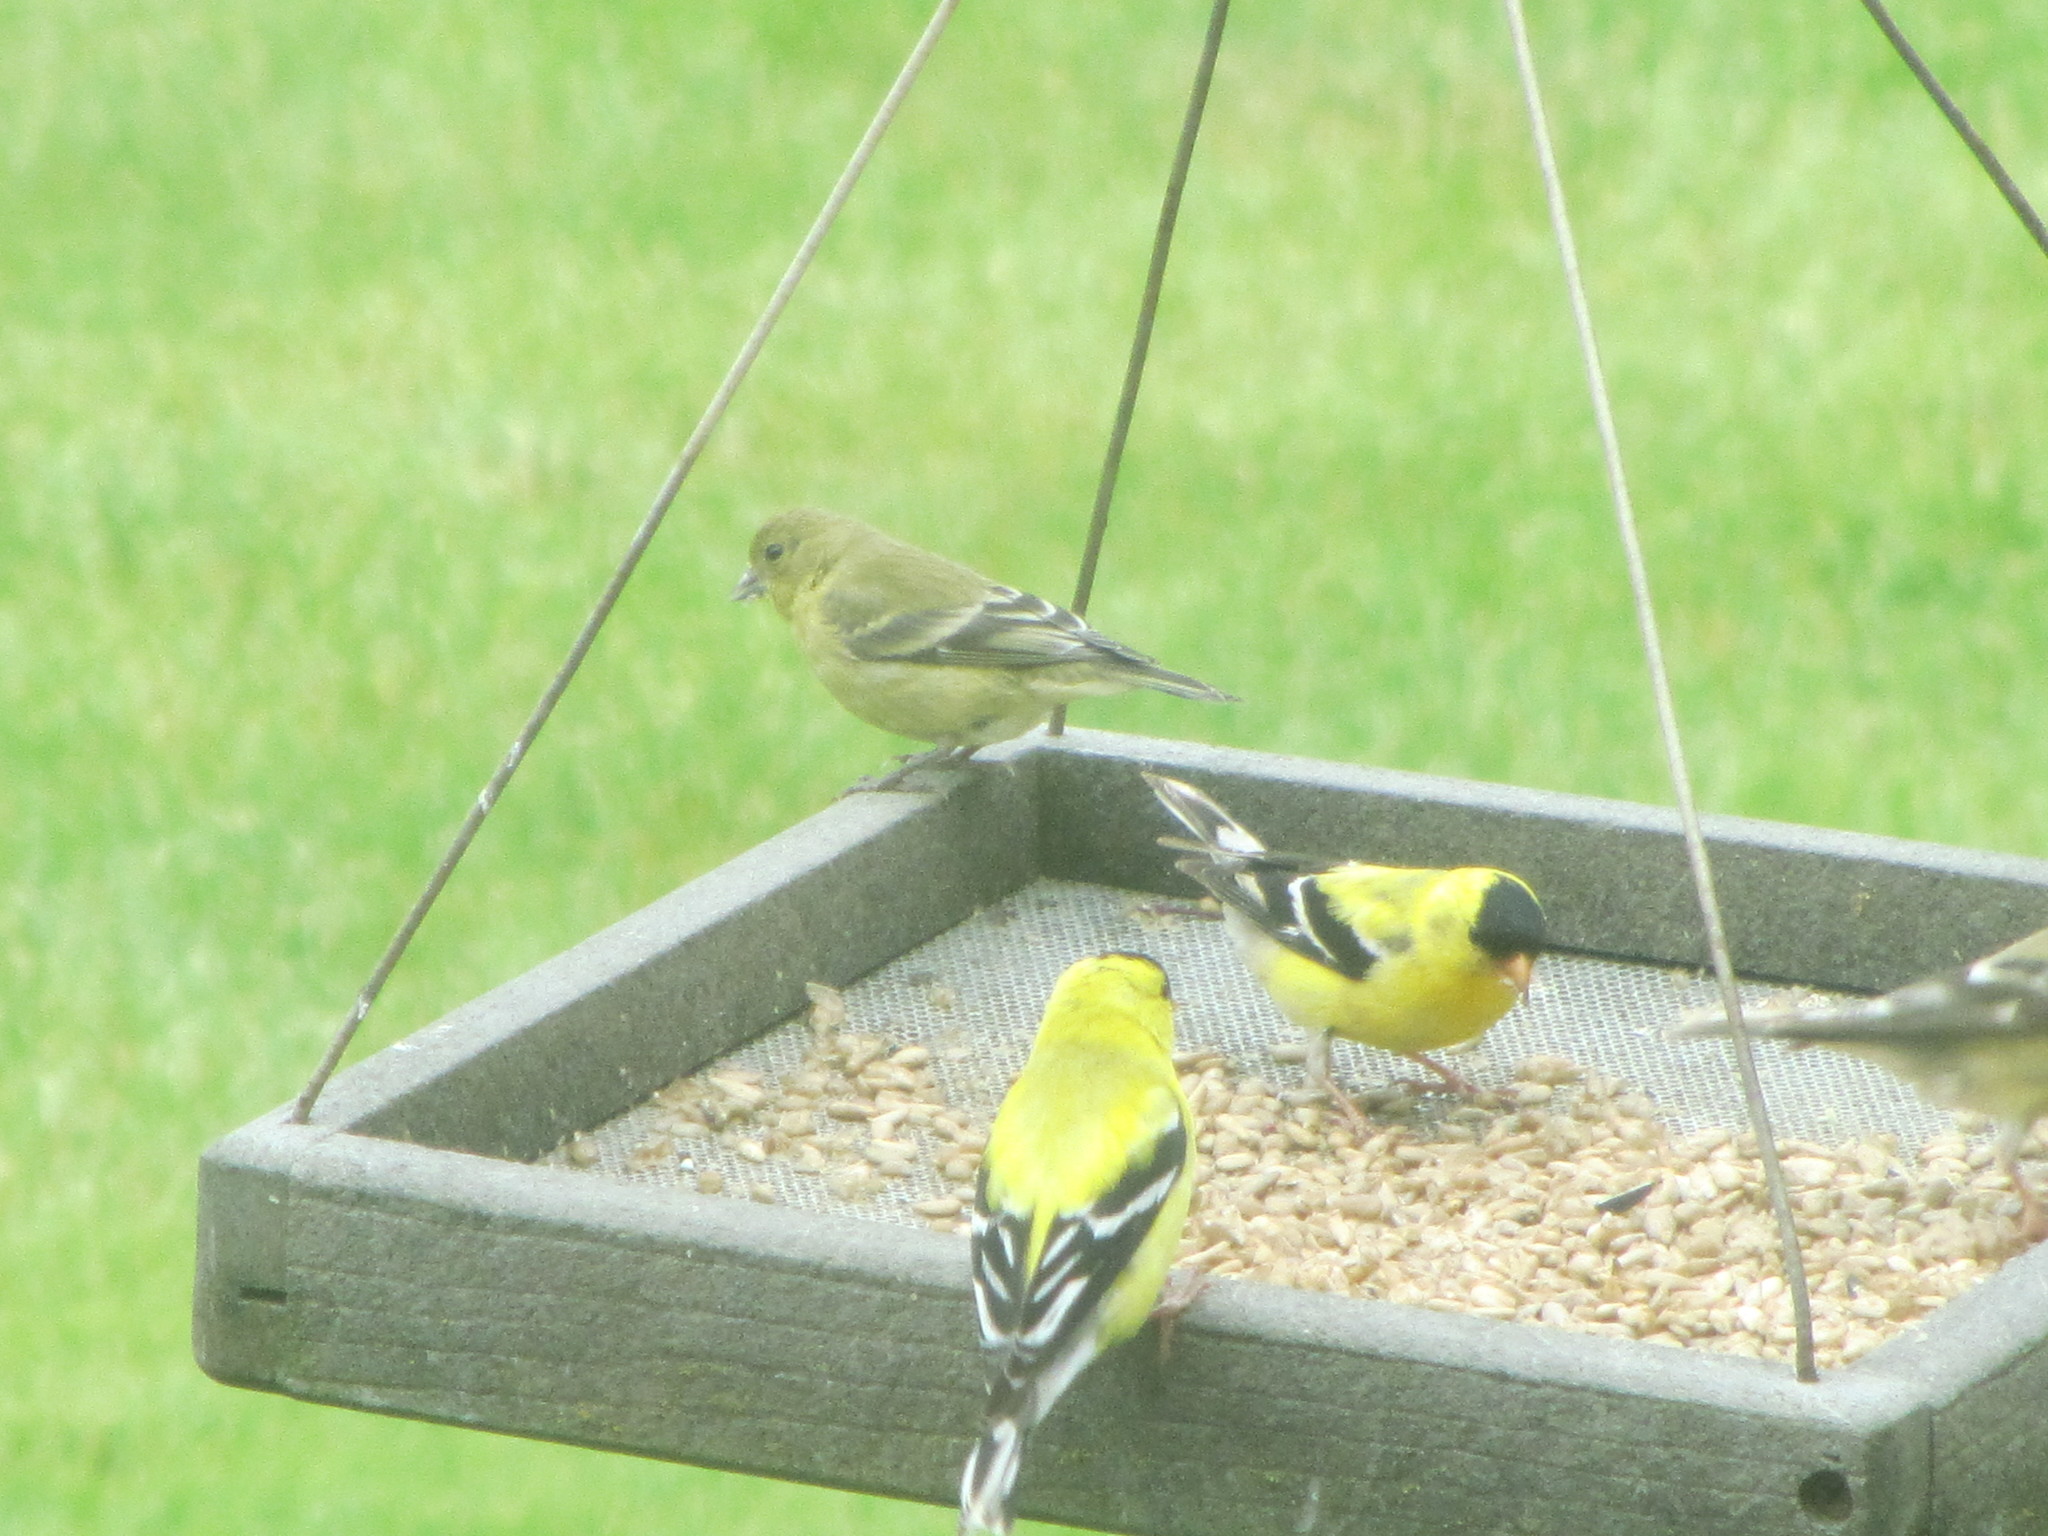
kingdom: Animalia
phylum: Chordata
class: Aves
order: Passeriformes
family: Fringillidae
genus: Spinus
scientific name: Spinus tristis
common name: American goldfinch
